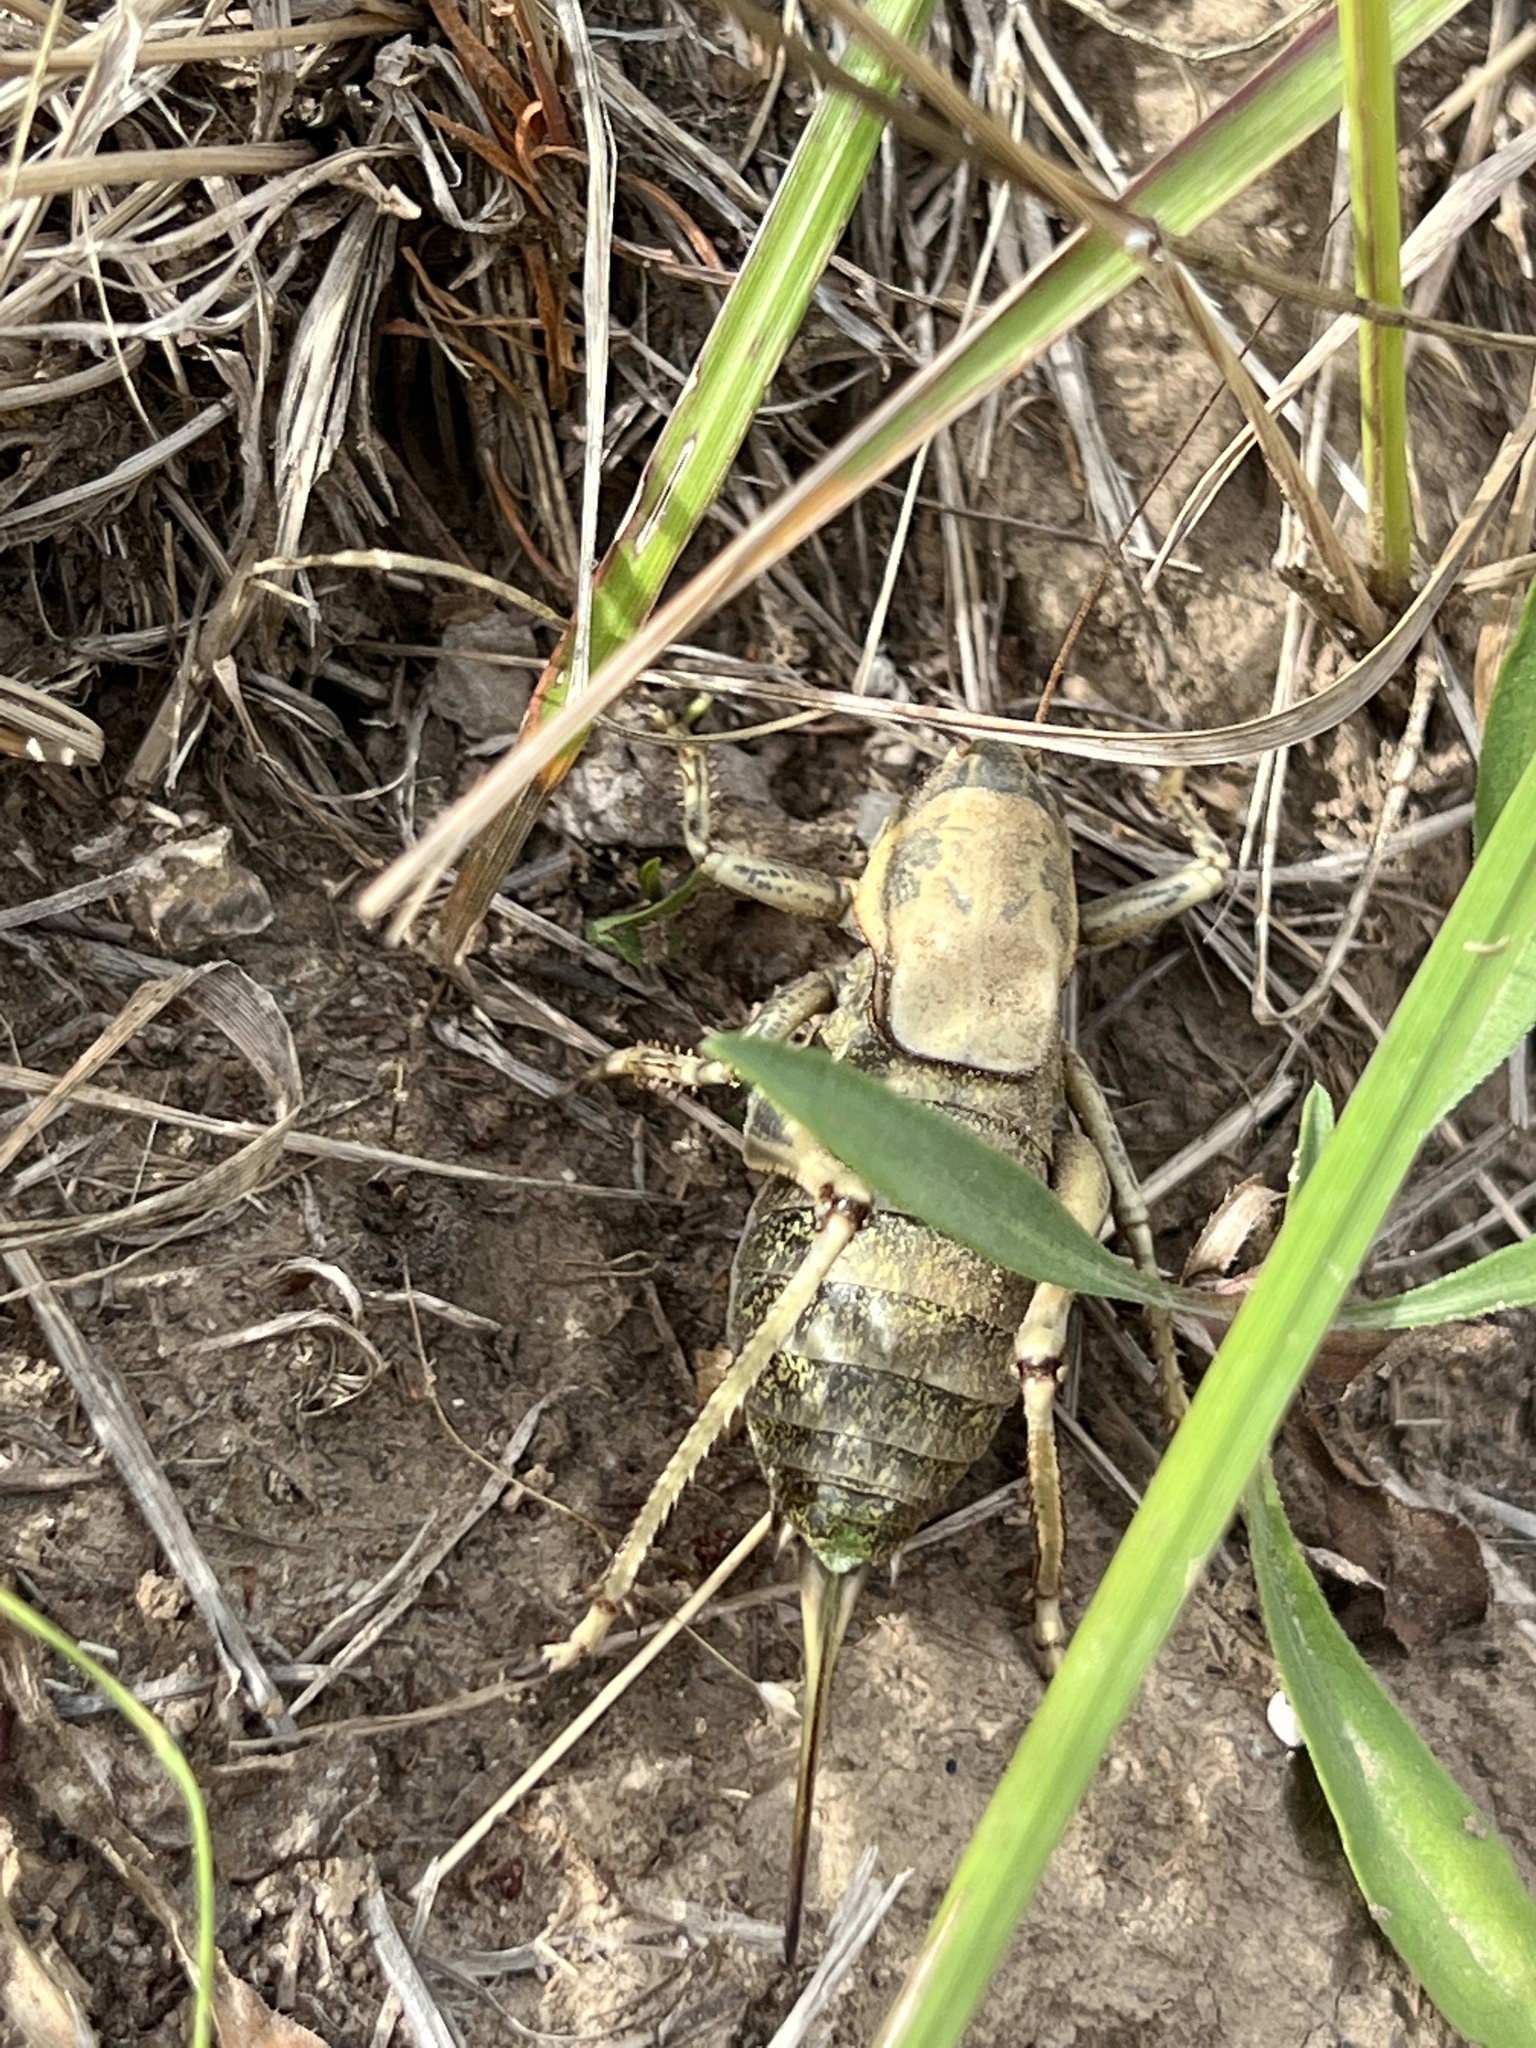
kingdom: Animalia
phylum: Arthropoda
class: Insecta
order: Orthoptera
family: Tettigoniidae
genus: Anabrus
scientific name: Anabrus simplex
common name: Mormon cricket
